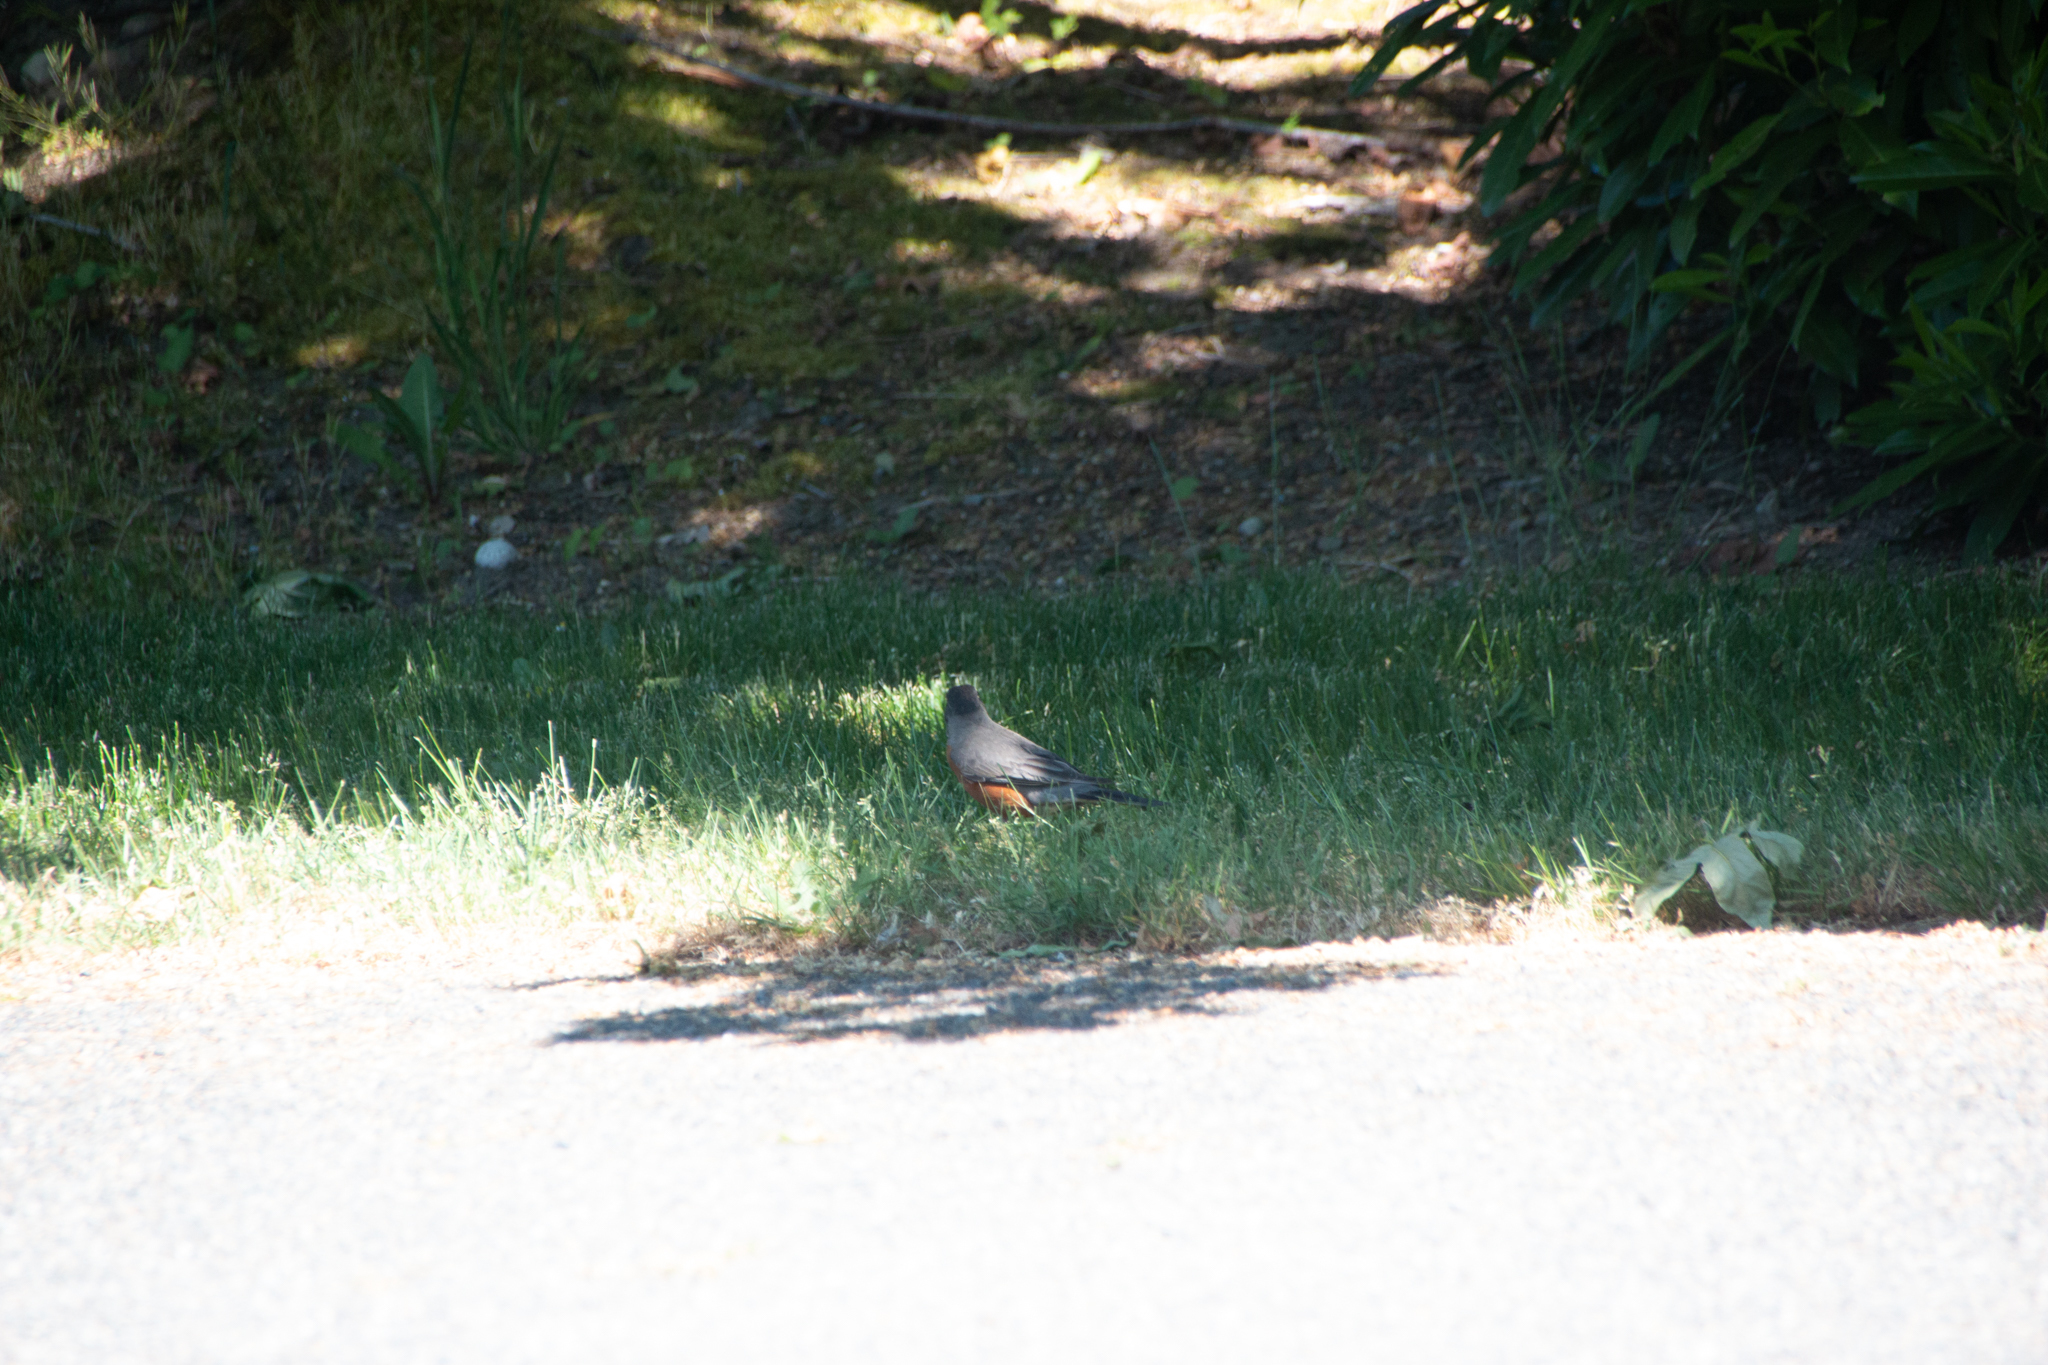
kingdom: Animalia
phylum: Chordata
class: Aves
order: Passeriformes
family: Turdidae
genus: Turdus
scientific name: Turdus migratorius
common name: American robin
